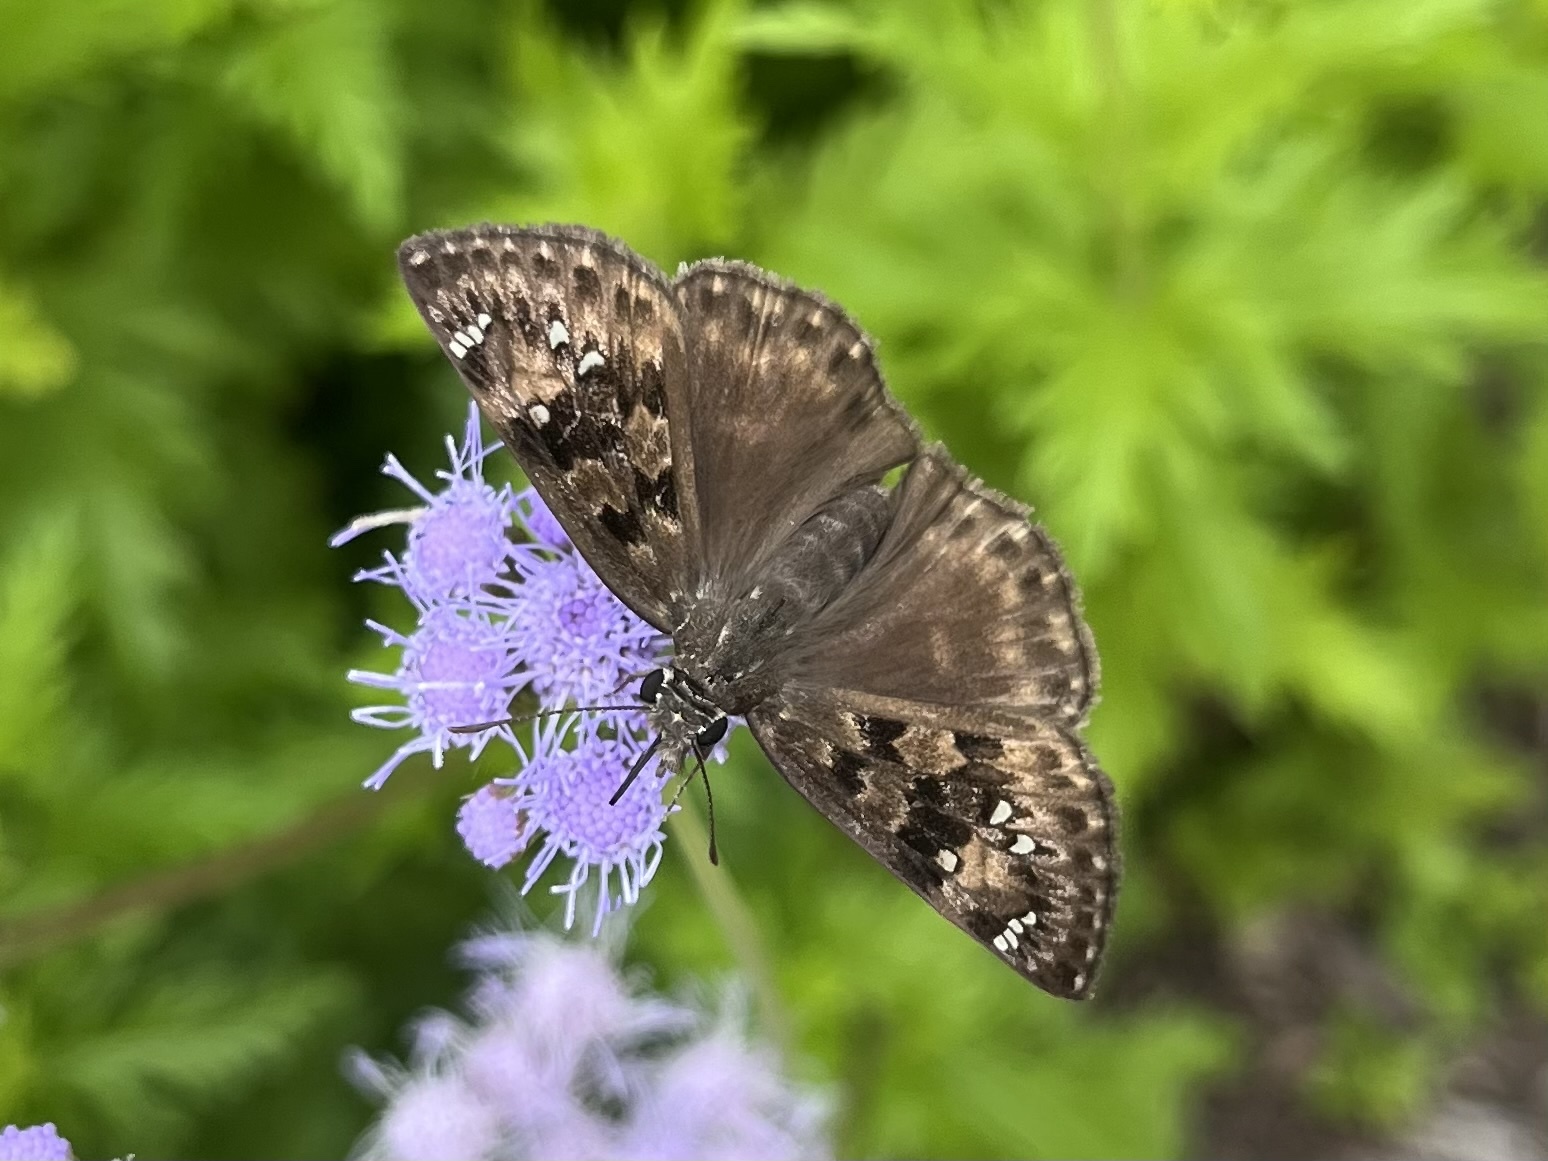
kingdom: Animalia
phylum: Arthropoda
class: Insecta
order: Lepidoptera
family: Hesperiidae
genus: Erynnis
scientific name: Erynnis horatius
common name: Horace's duskywing
